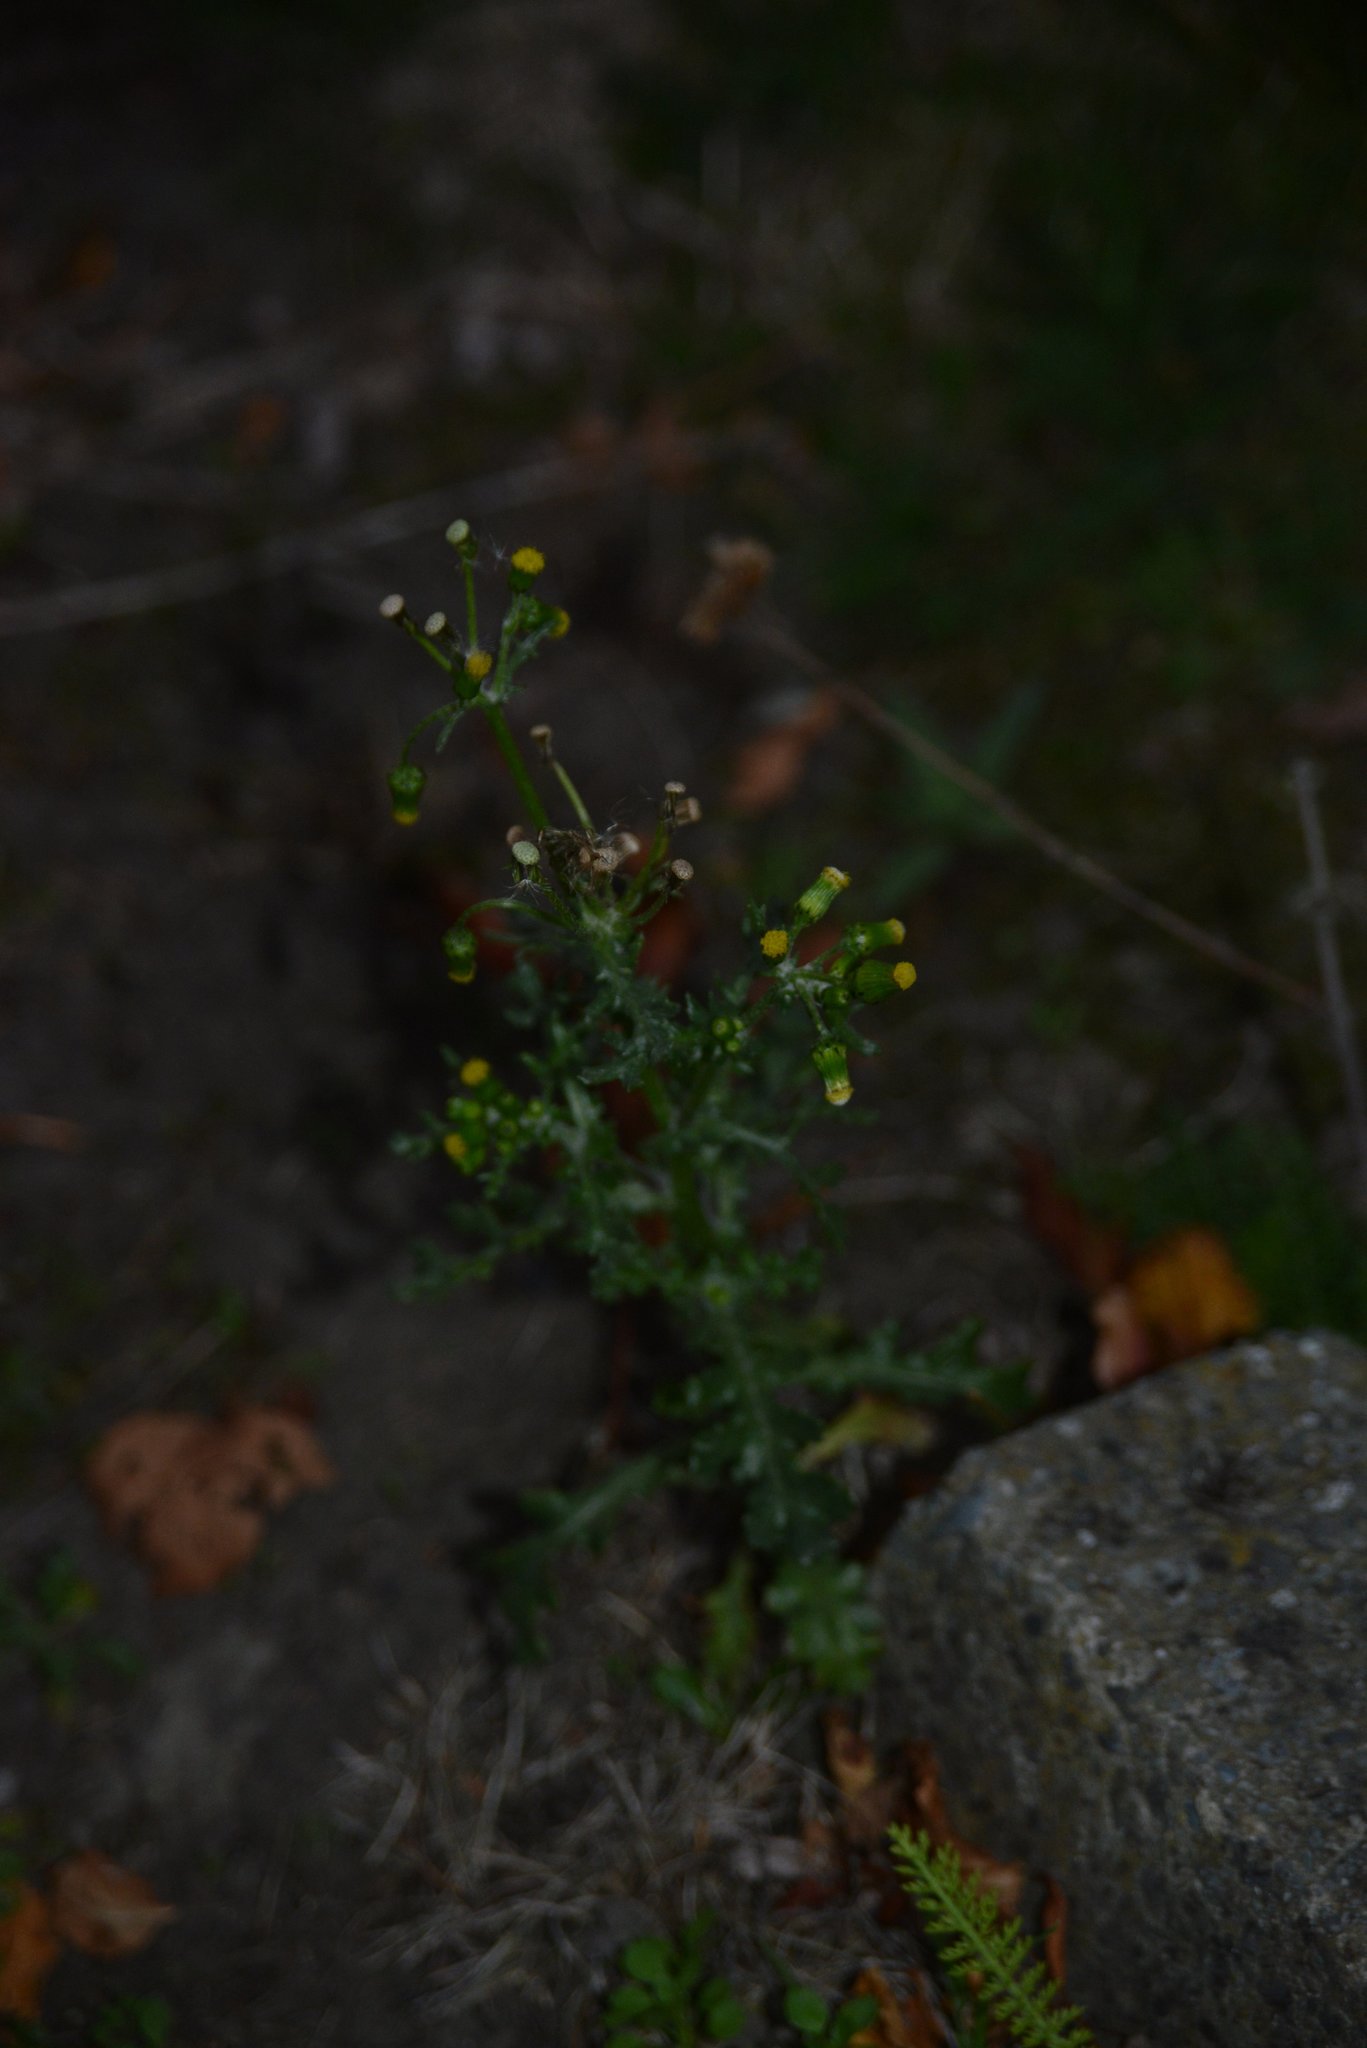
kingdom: Plantae
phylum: Tracheophyta
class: Magnoliopsida
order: Asterales
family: Asteraceae
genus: Senecio
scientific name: Senecio vulgaris
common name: Old-man-in-the-spring
